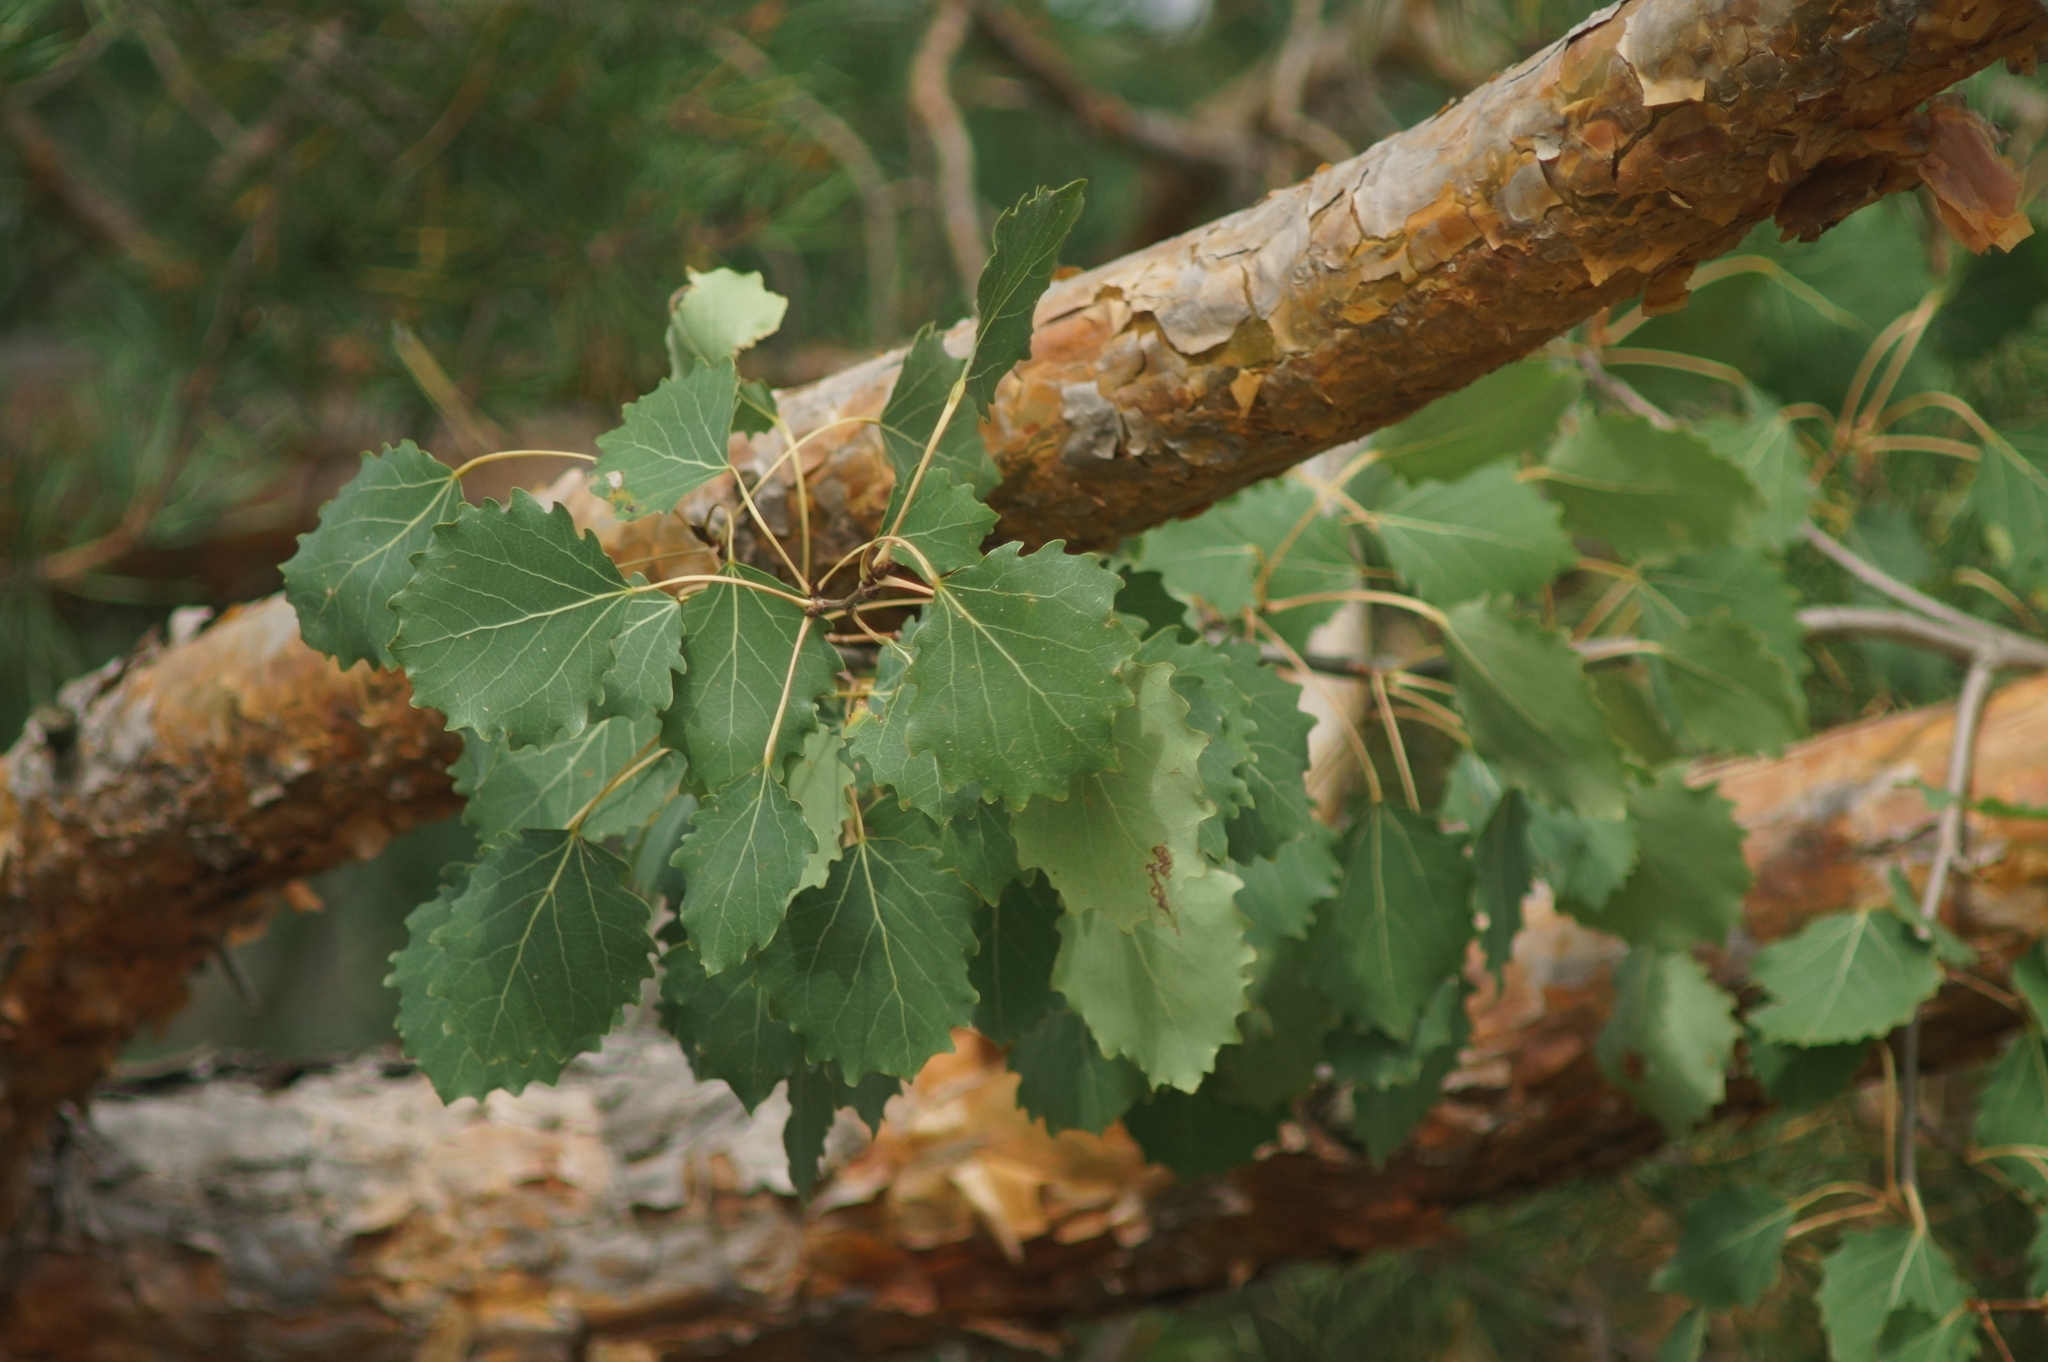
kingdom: Plantae
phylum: Tracheophyta
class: Magnoliopsida
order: Malpighiales
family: Salicaceae
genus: Populus
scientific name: Populus tremula
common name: European aspen
